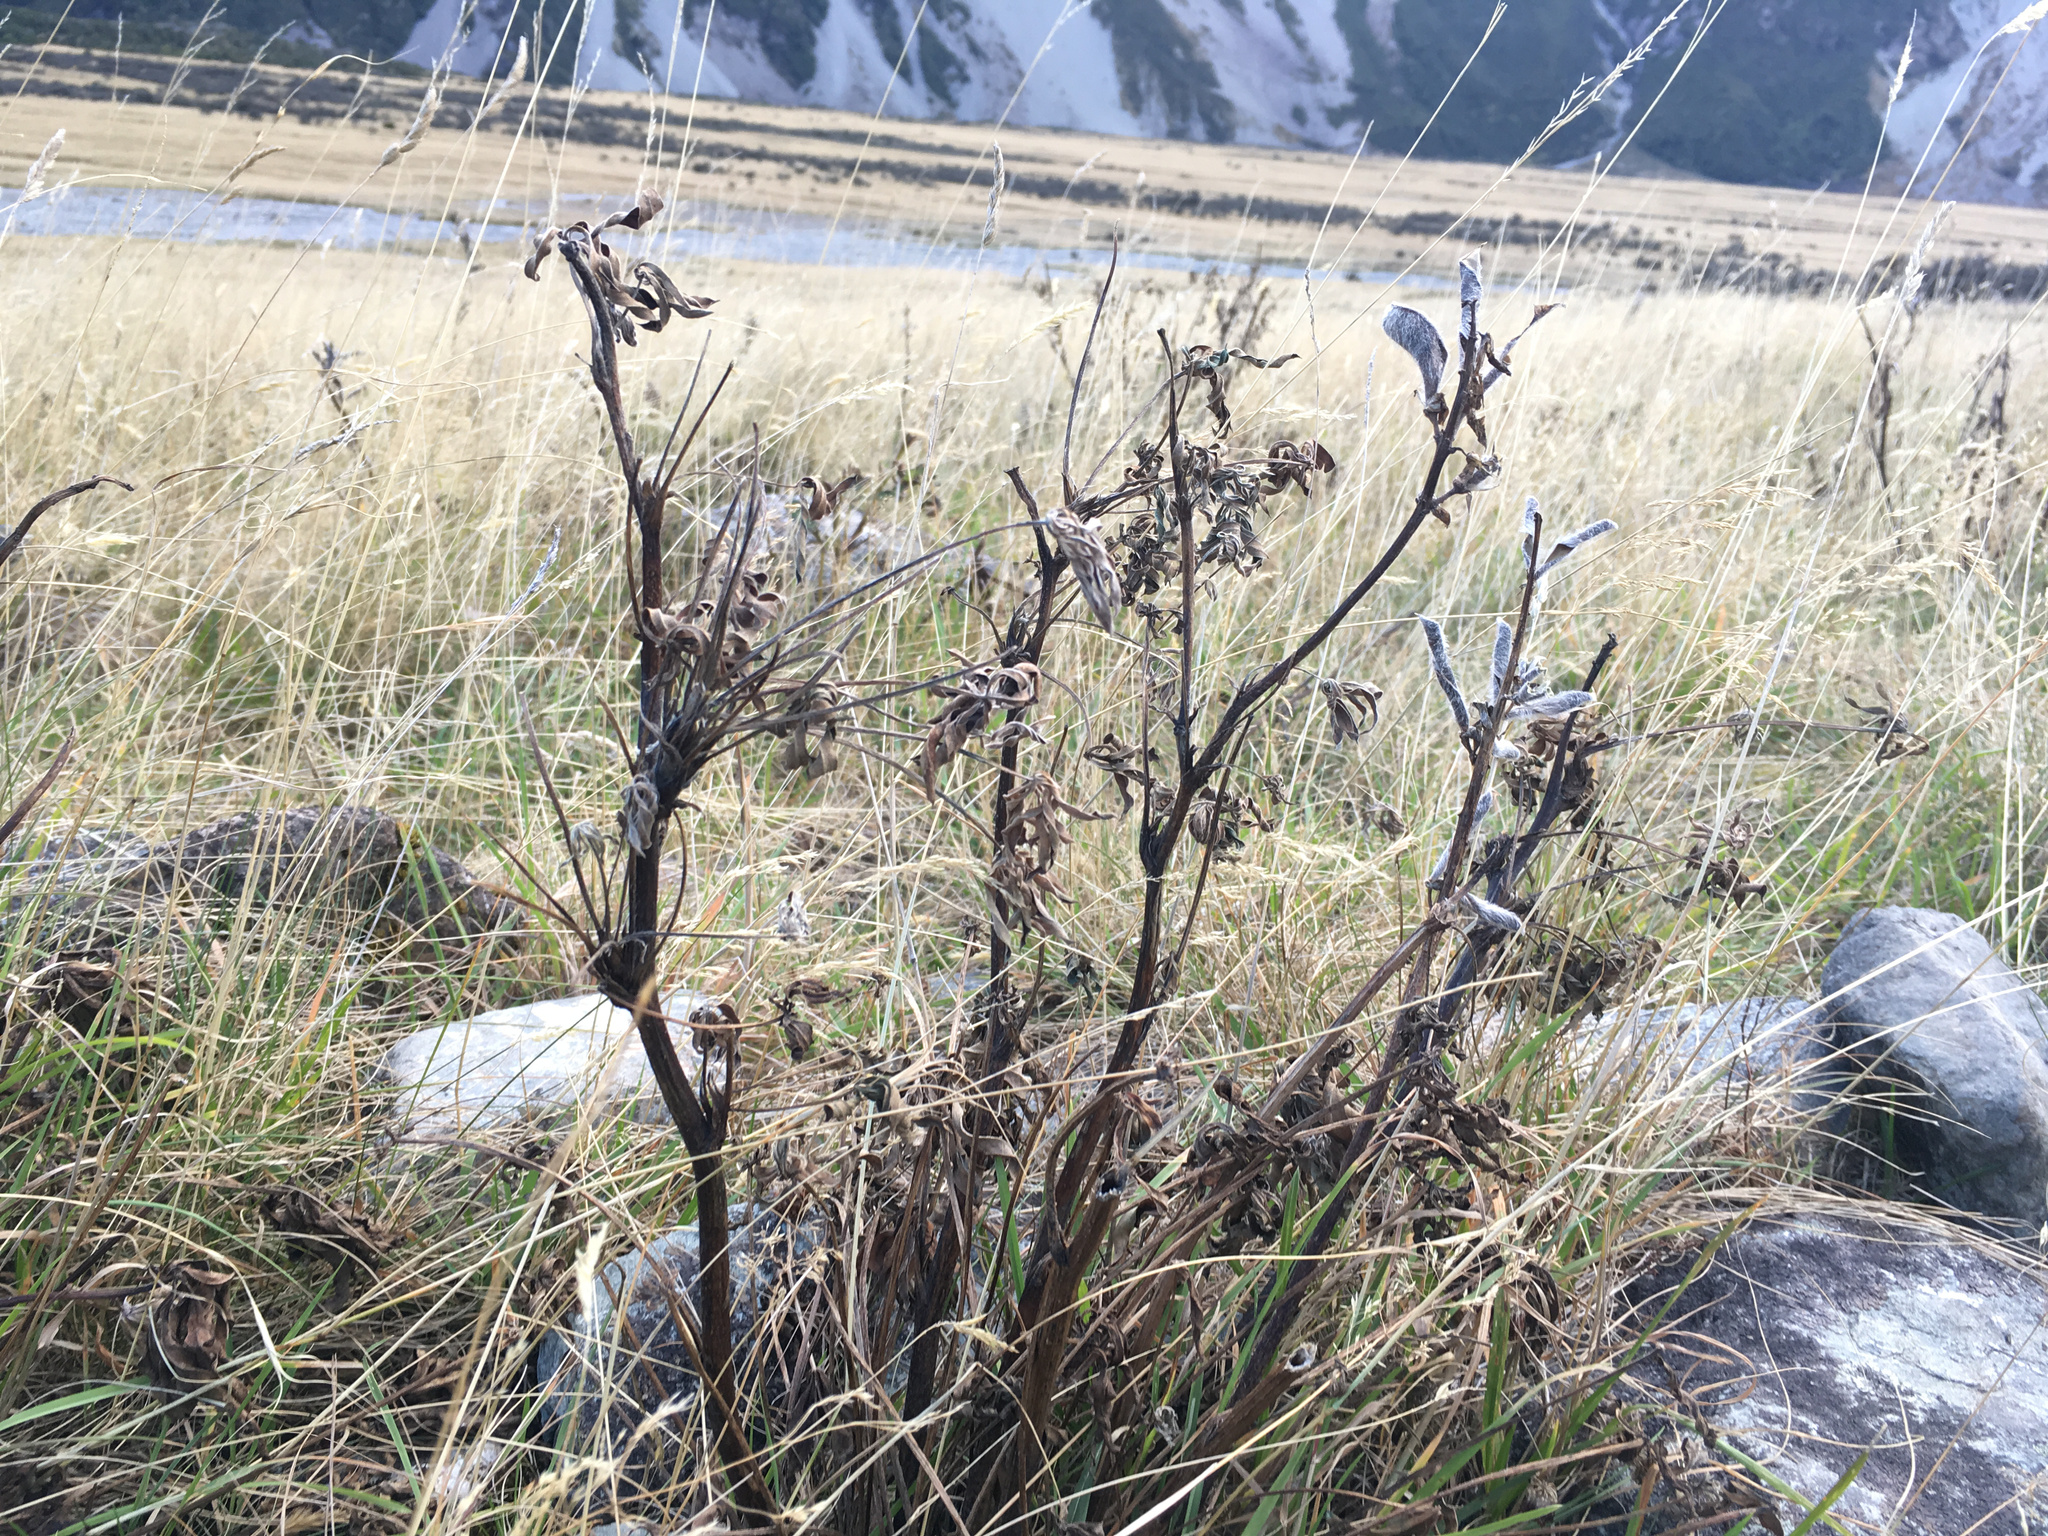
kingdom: Plantae
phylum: Tracheophyta
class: Magnoliopsida
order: Fabales
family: Fabaceae
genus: Lupinus
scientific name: Lupinus polyphyllus
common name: Garden lupin
